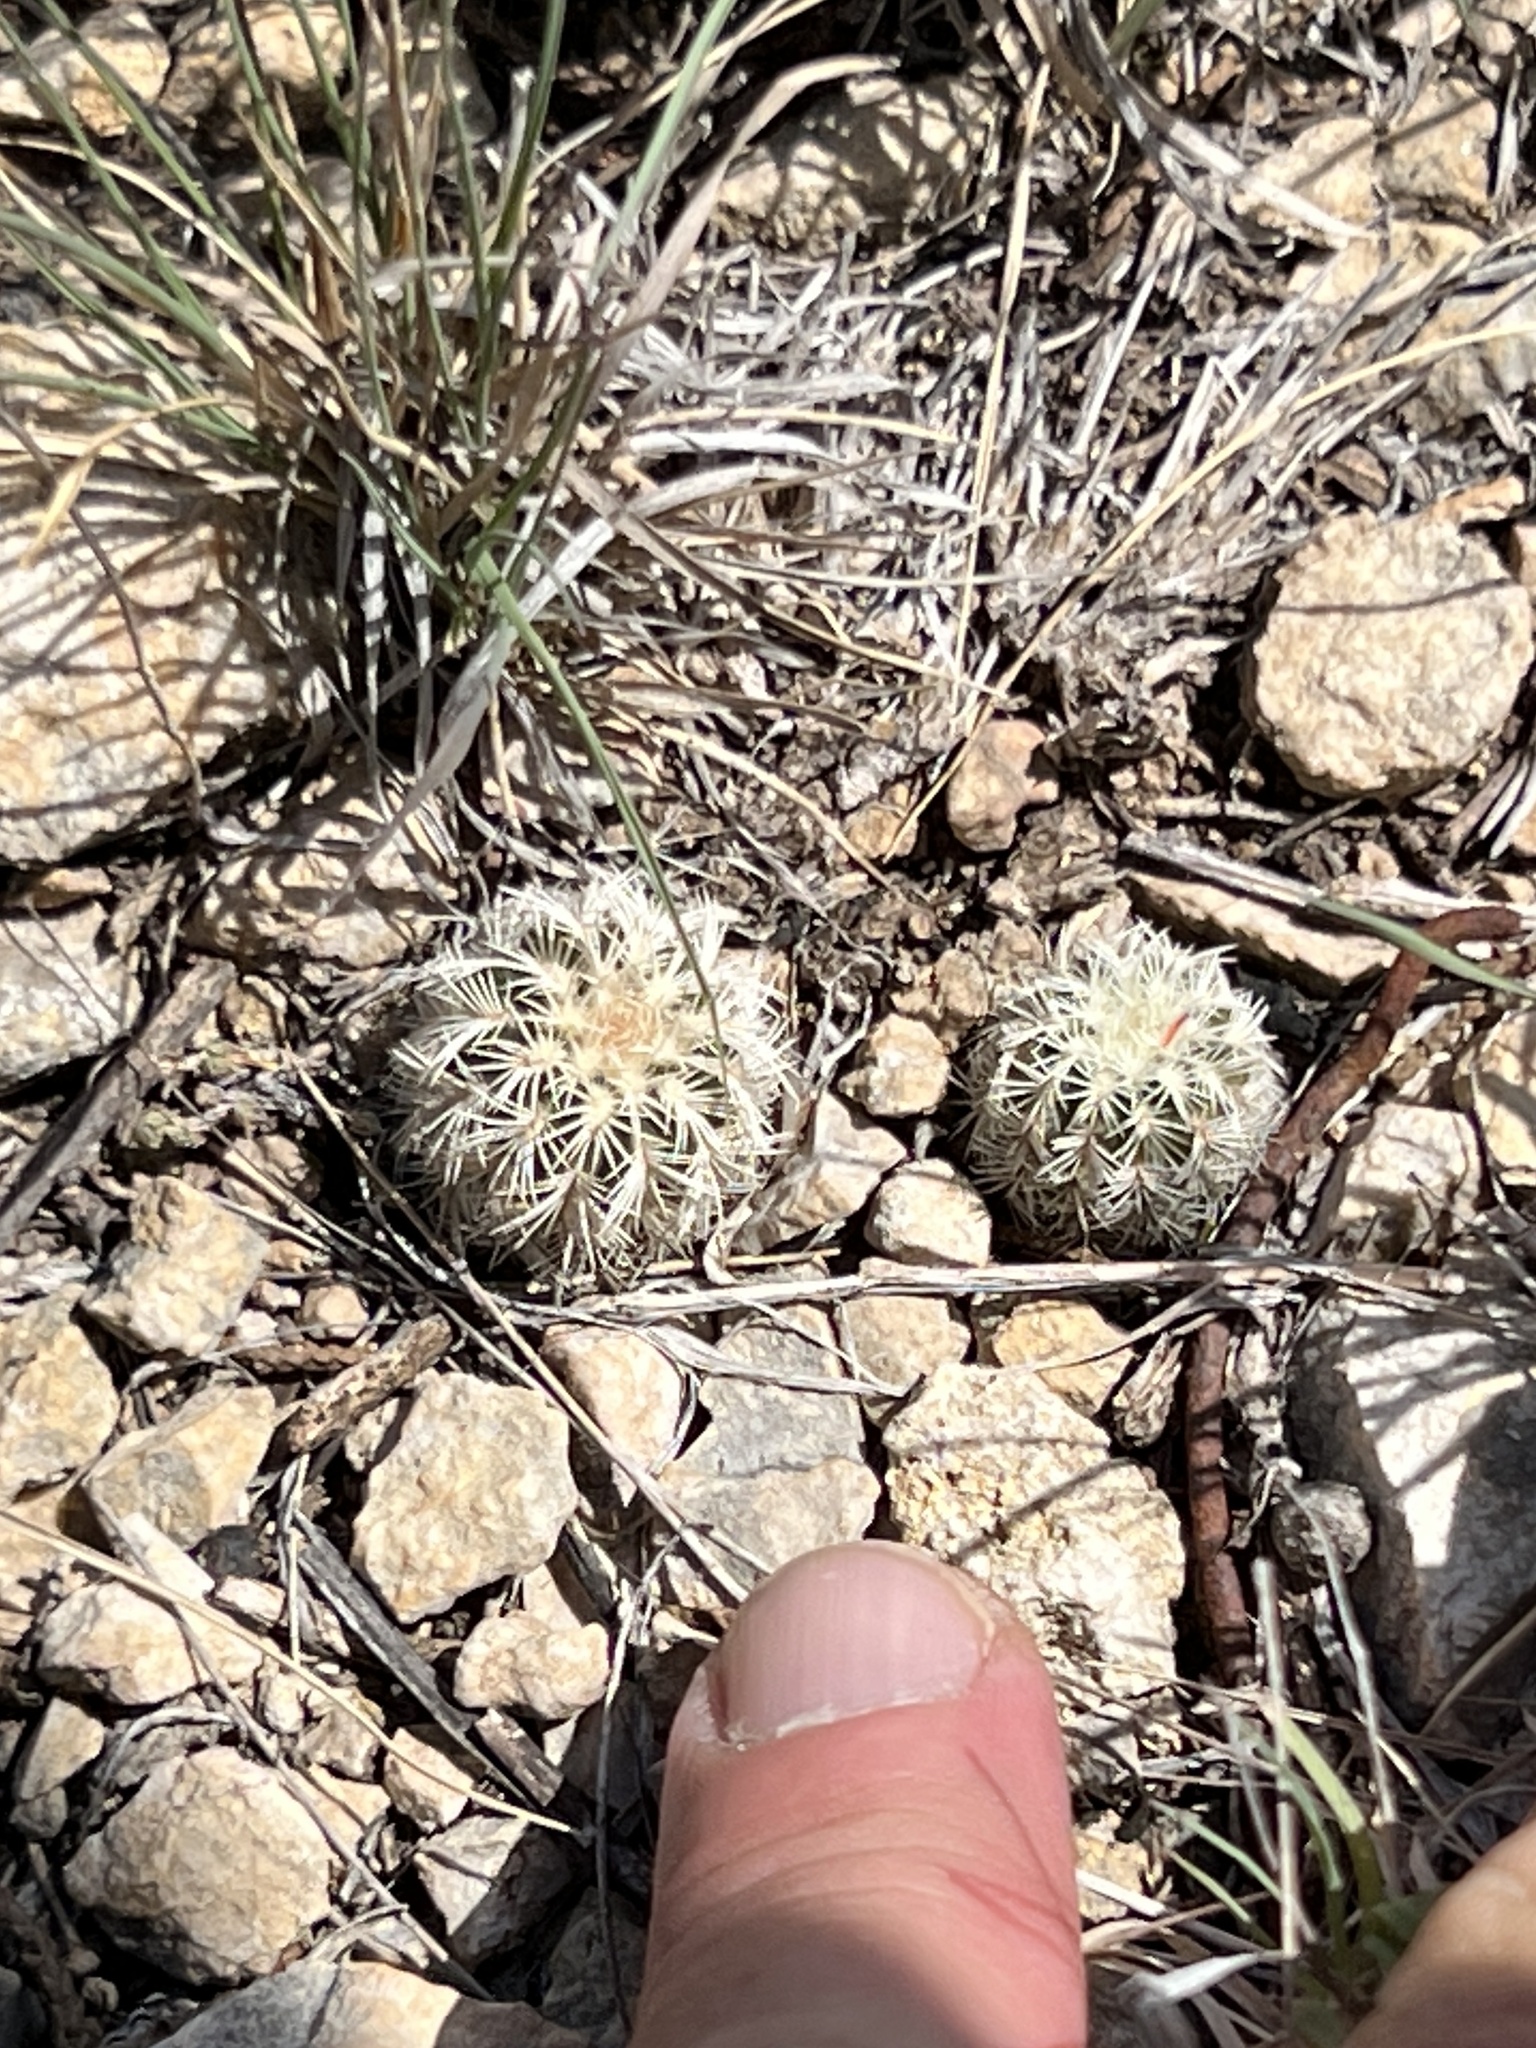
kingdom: Plantae
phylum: Tracheophyta
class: Magnoliopsida
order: Caryophyllales
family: Cactaceae
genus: Echinocereus
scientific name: Echinocereus reichenbachii
